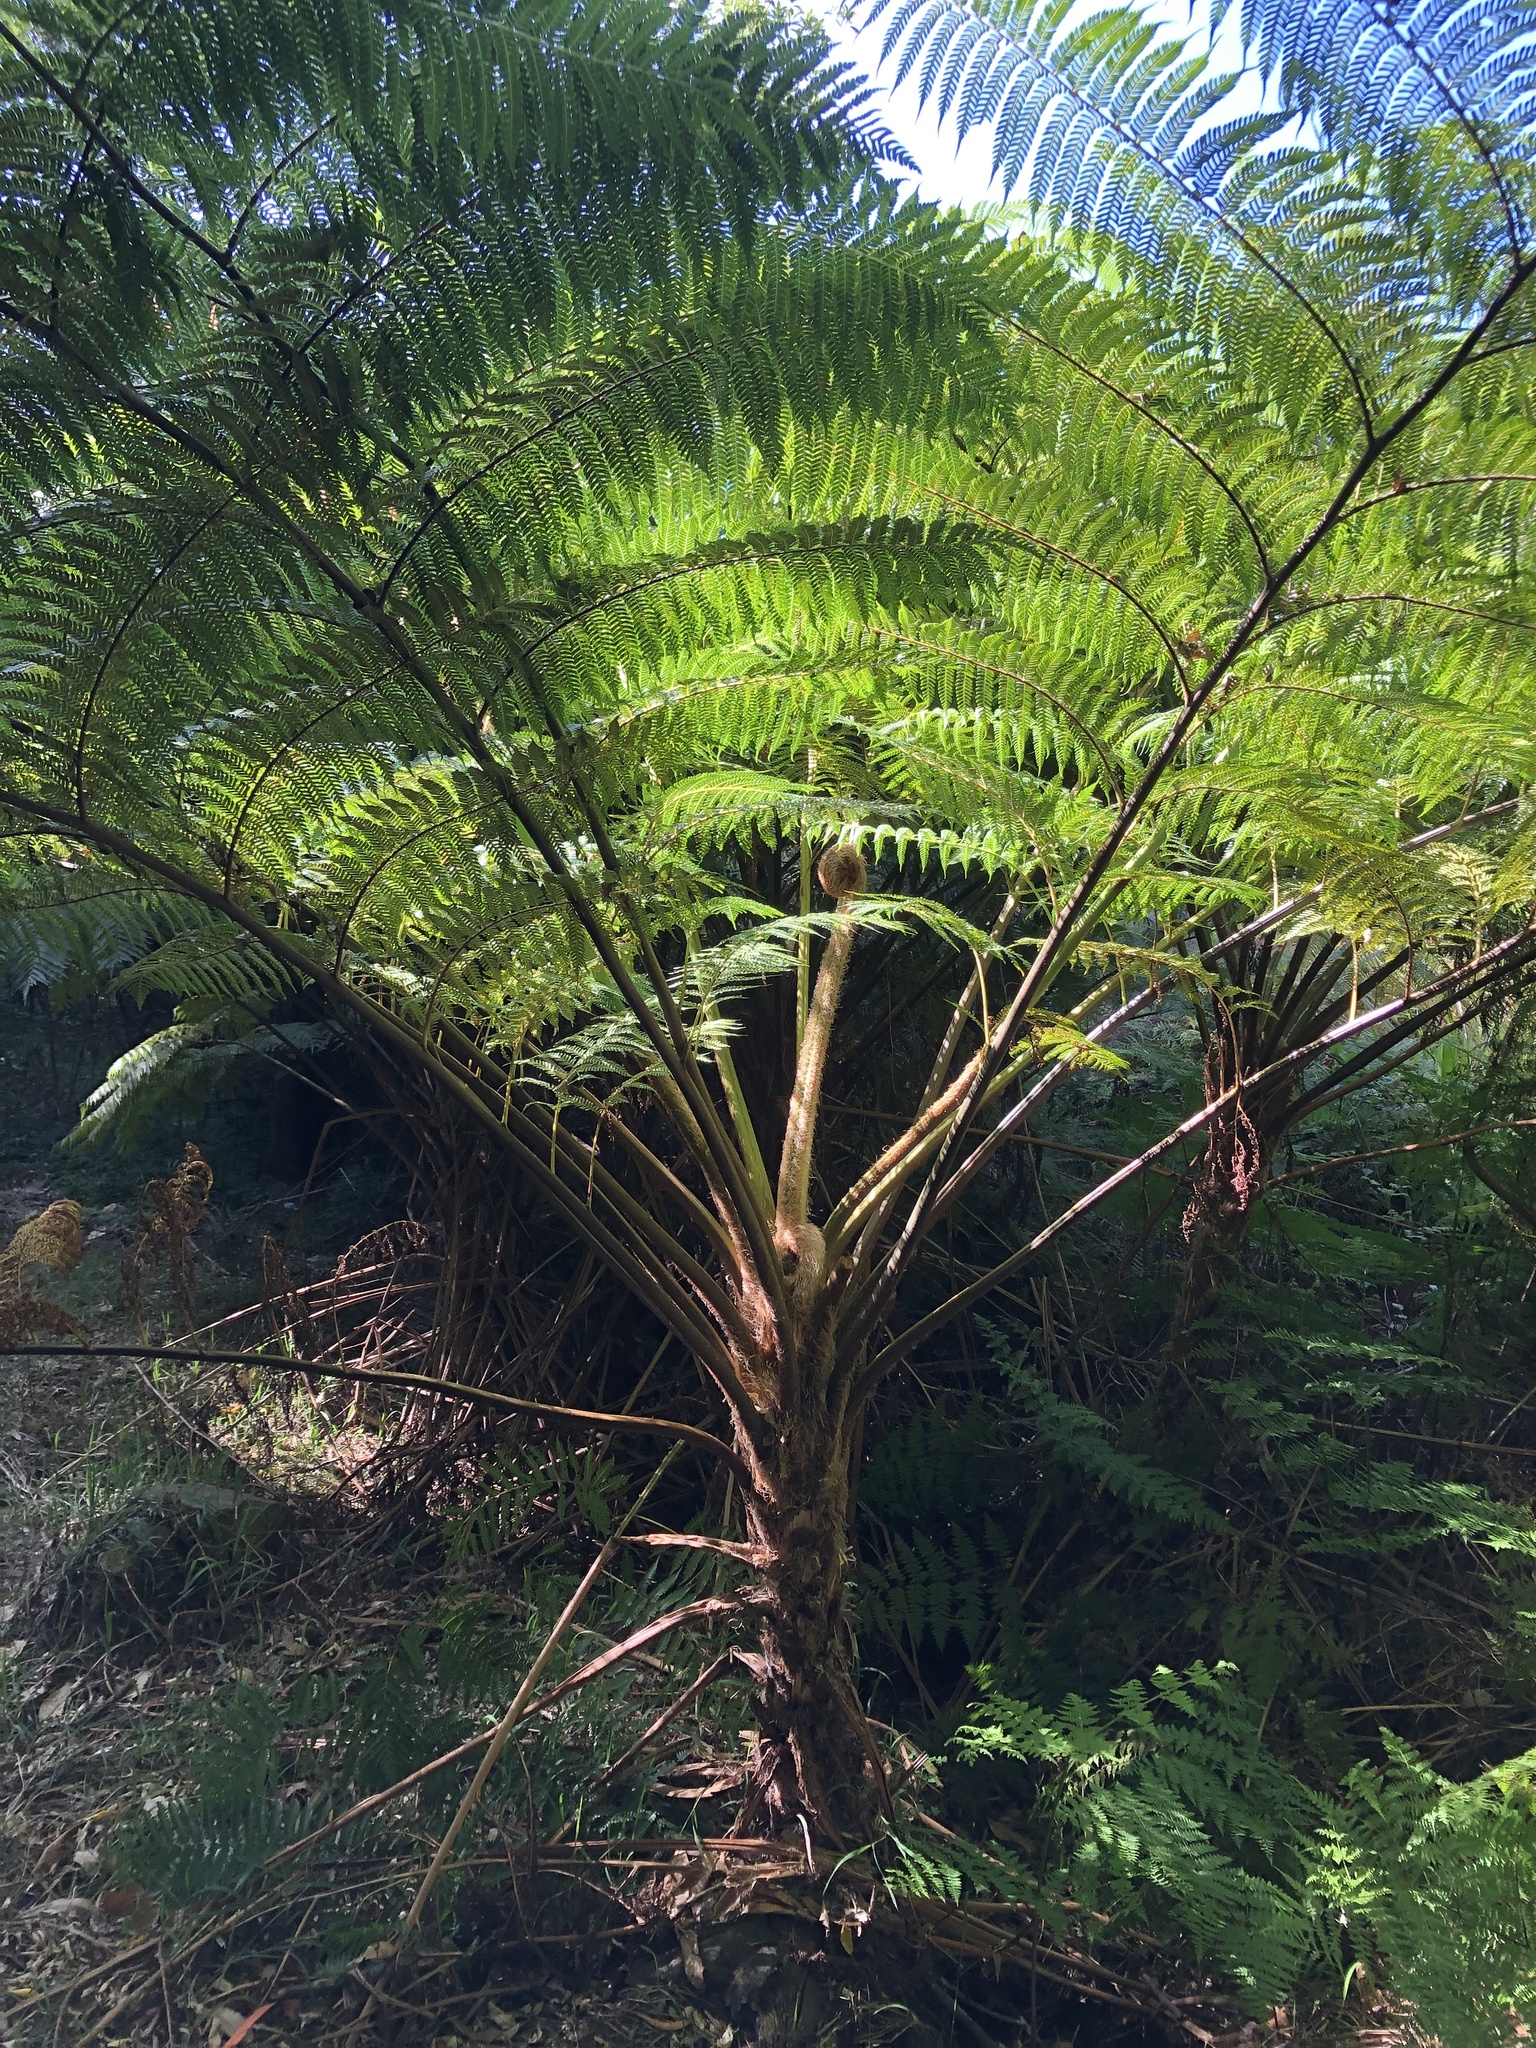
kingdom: Plantae
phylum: Tracheophyta
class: Polypodiopsida
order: Cyatheales
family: Cyatheaceae
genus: Sphaeropteris
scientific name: Sphaeropteris cooperi
